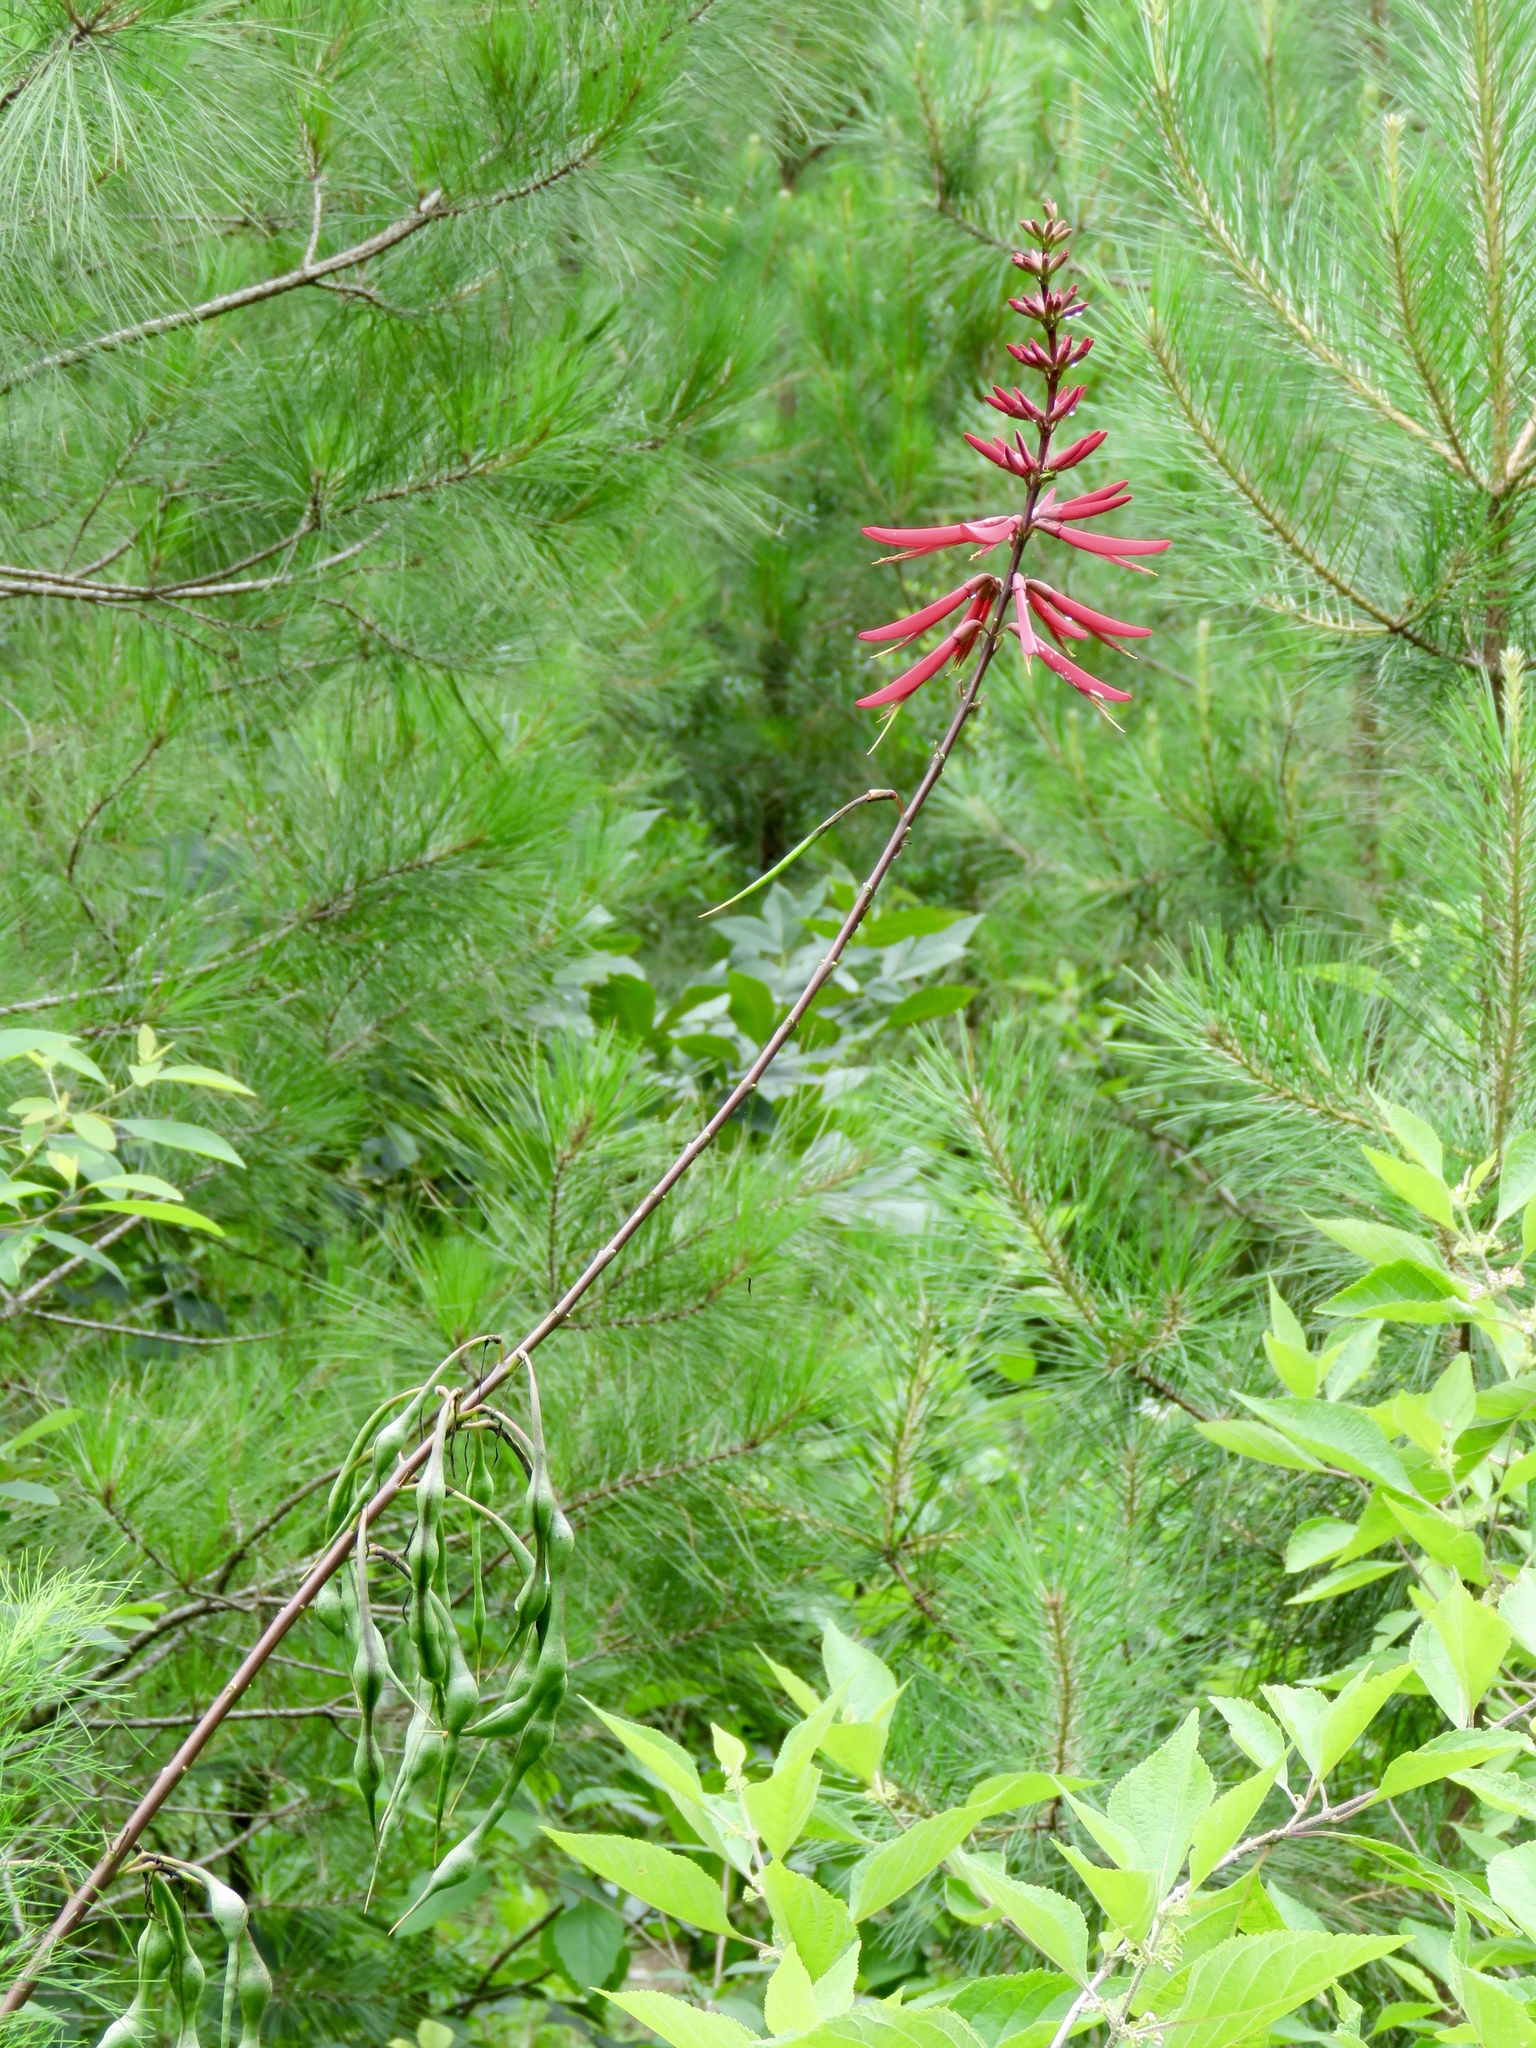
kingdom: Plantae
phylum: Tracheophyta
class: Magnoliopsida
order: Fabales
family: Fabaceae
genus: Erythrina
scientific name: Erythrina herbacea
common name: Coral-bean
